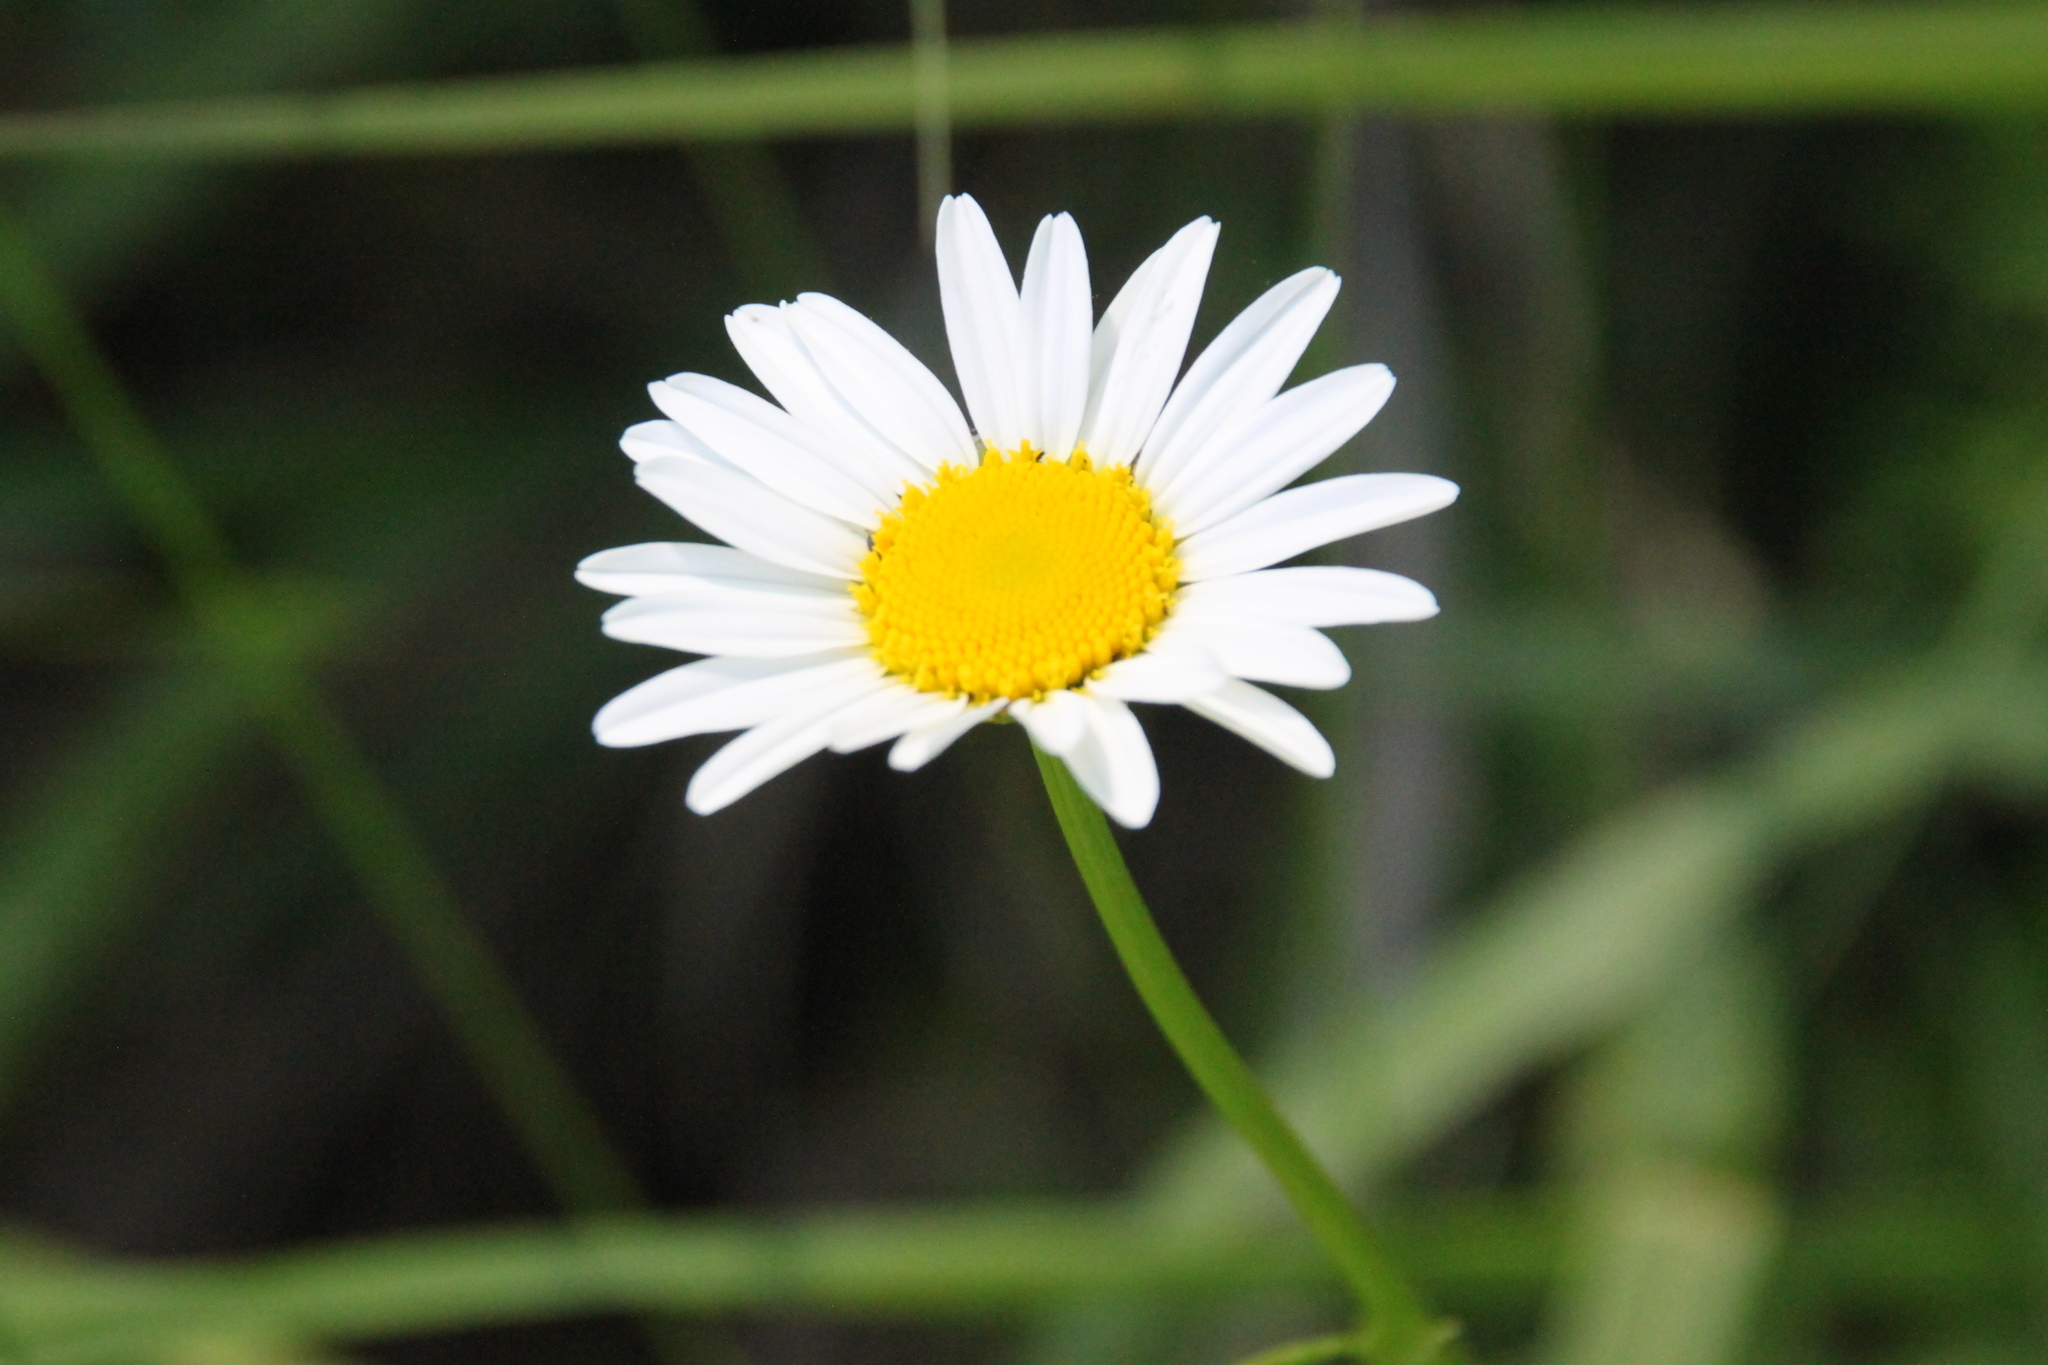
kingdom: Plantae
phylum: Tracheophyta
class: Magnoliopsida
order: Asterales
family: Asteraceae
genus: Leucanthemum
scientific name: Leucanthemum vulgare
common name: Oxeye daisy
